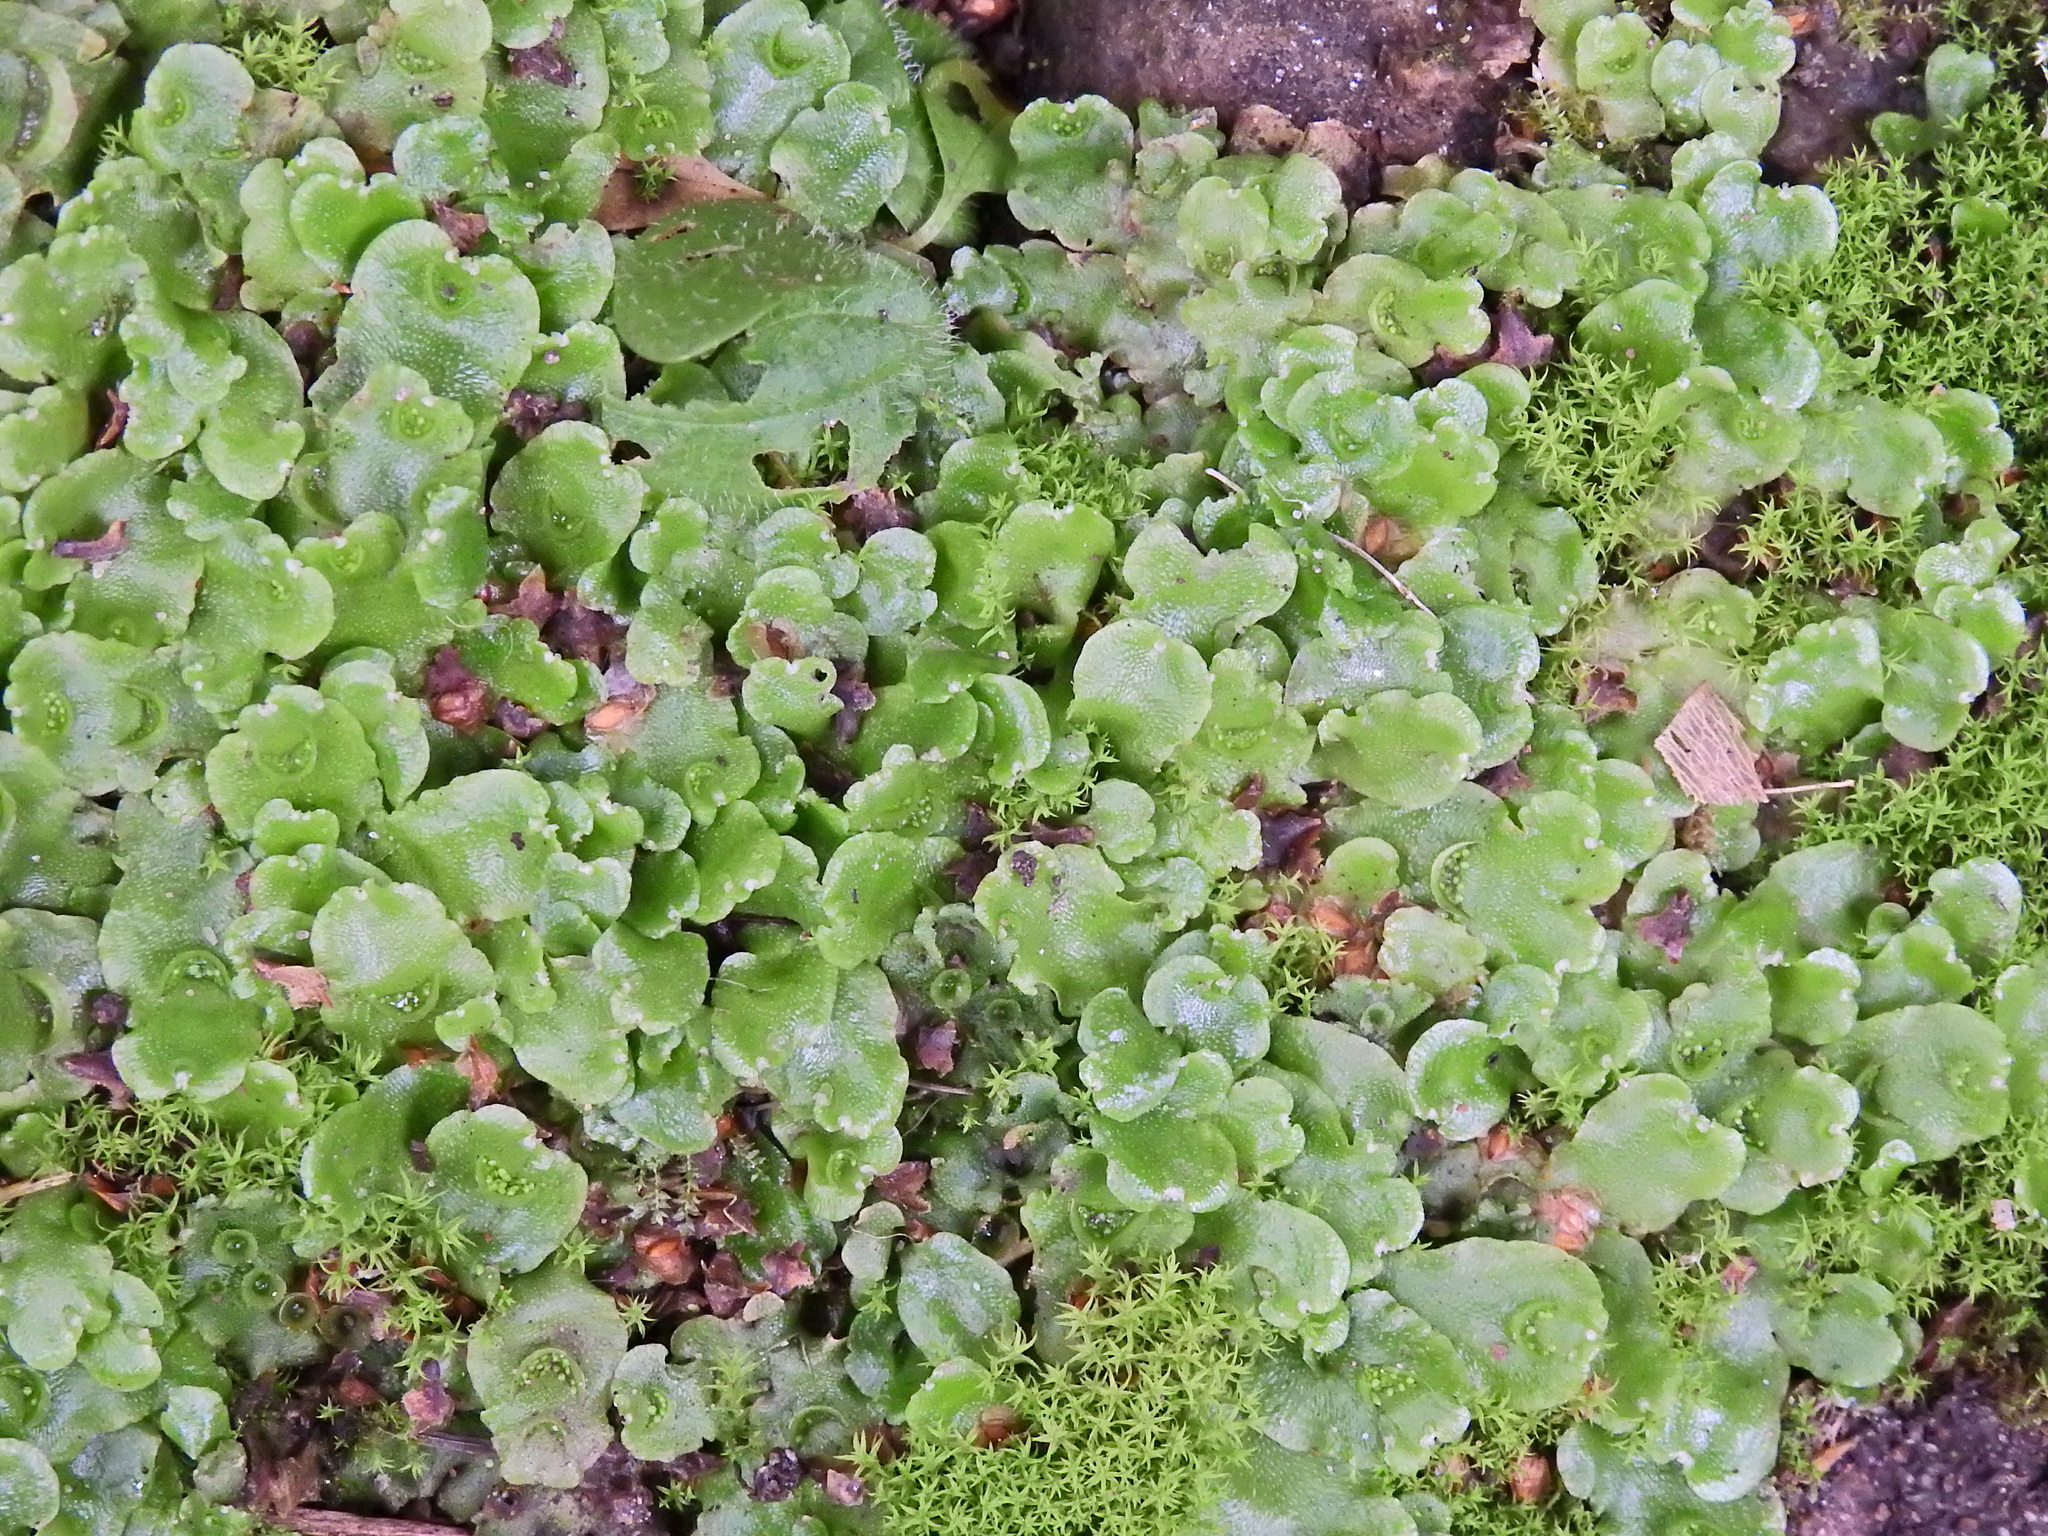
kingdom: Plantae
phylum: Marchantiophyta
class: Marchantiopsida
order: Lunulariales
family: Lunulariaceae
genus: Lunularia
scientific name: Lunularia cruciata
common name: Crescent-cup liverwort
